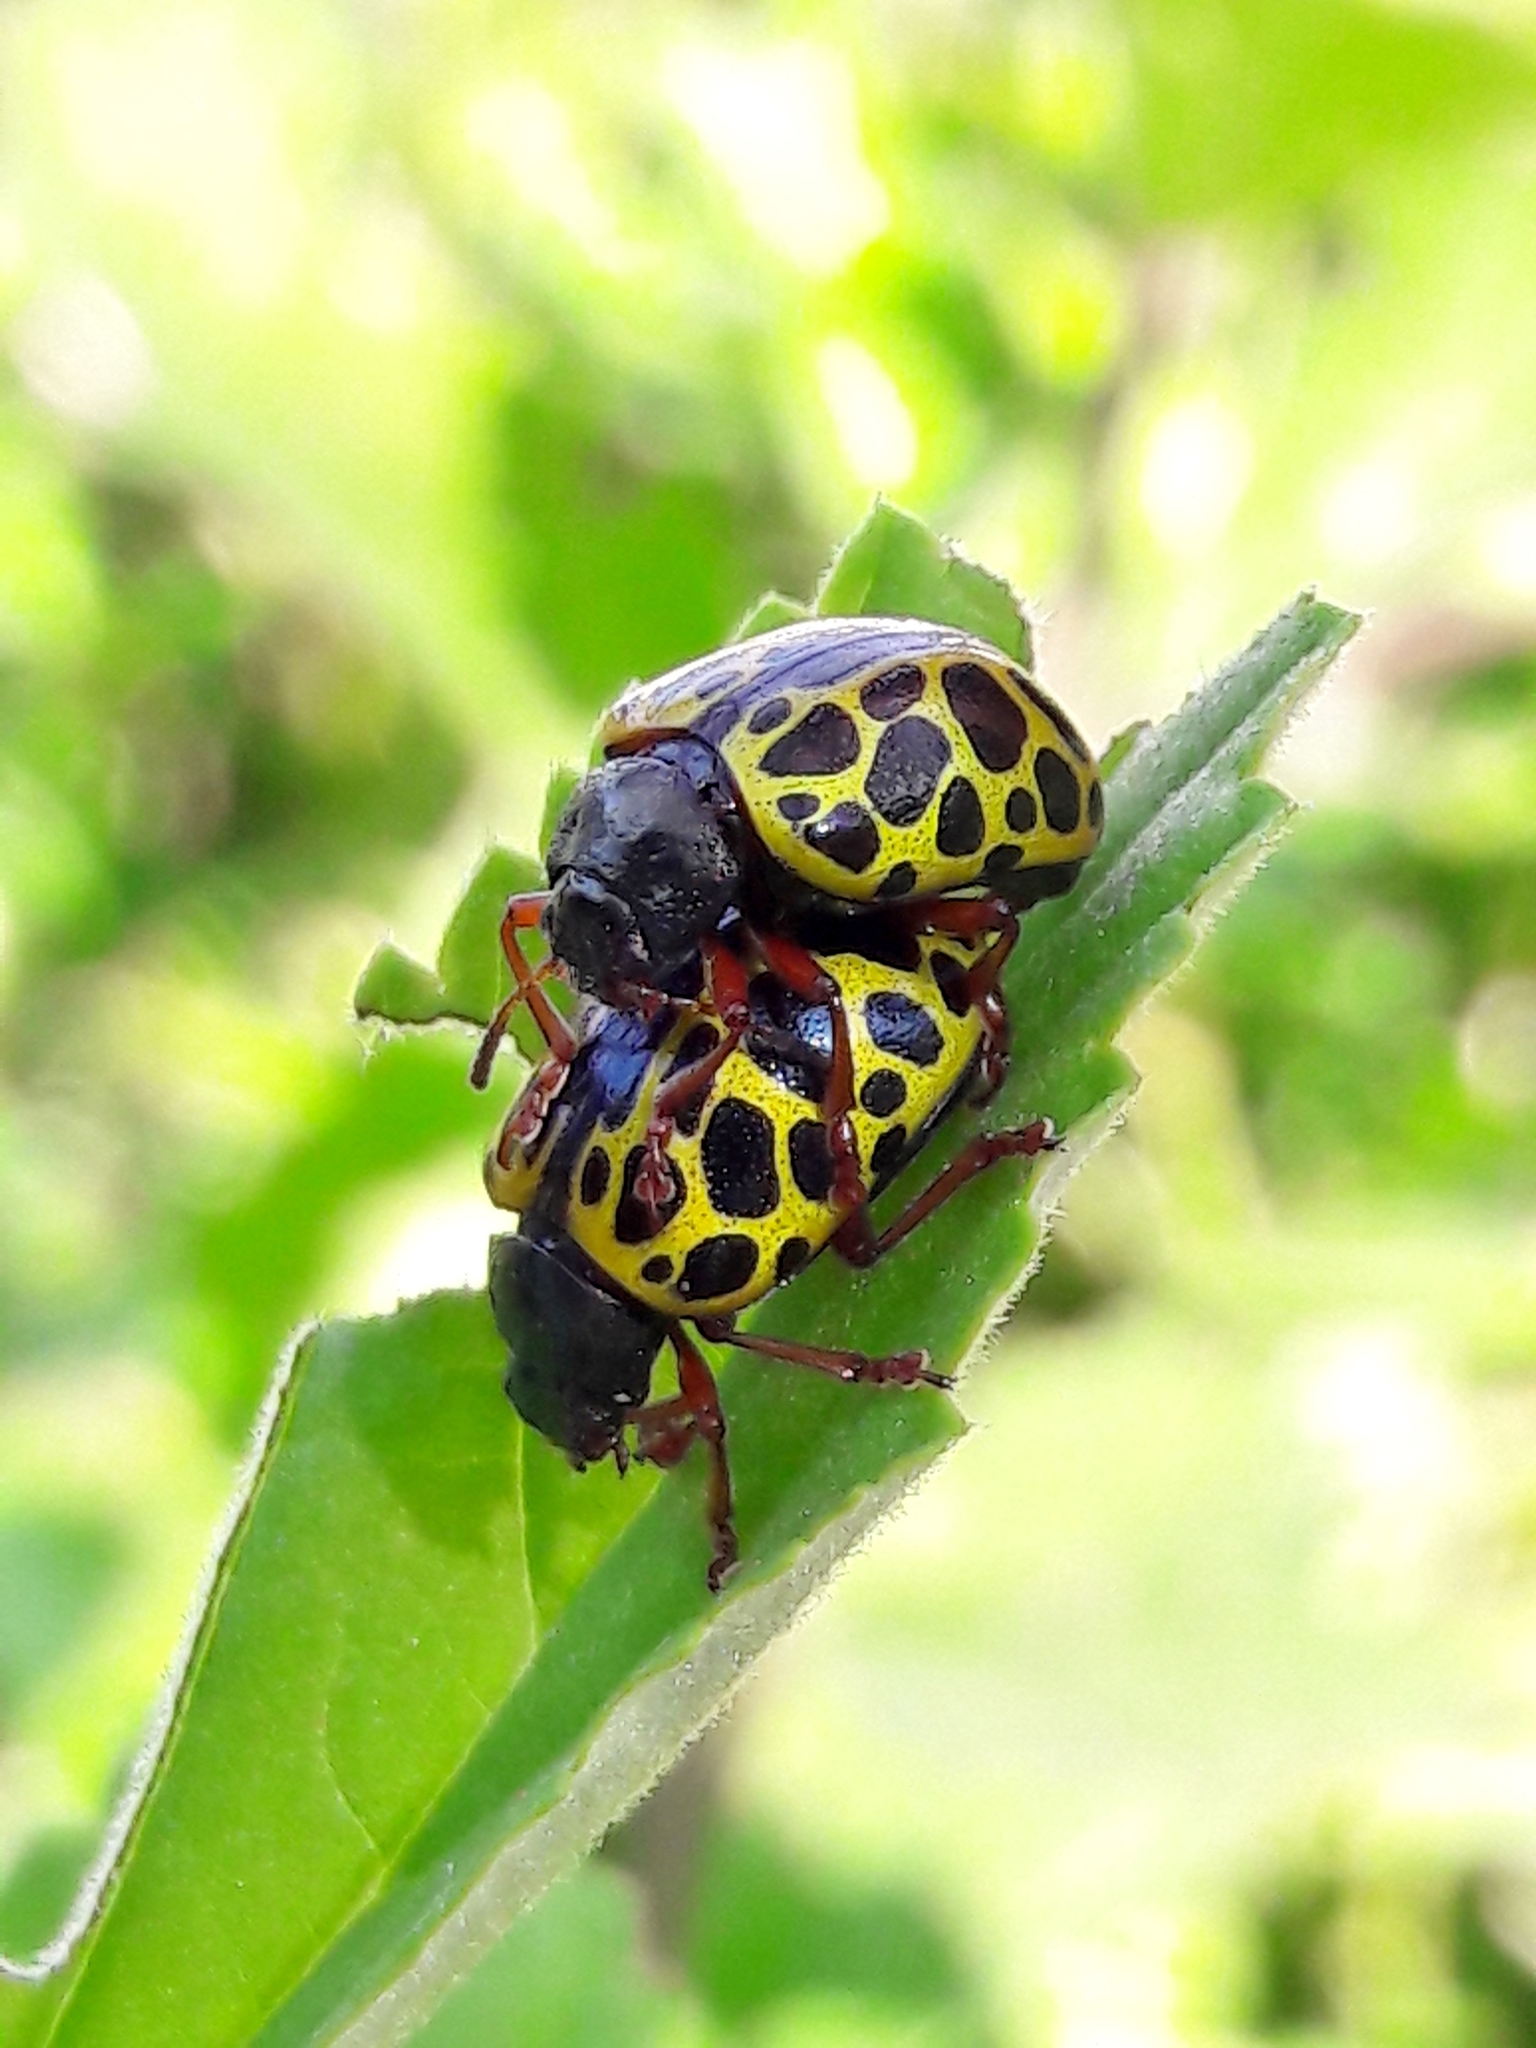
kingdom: Animalia
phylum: Arthropoda
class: Insecta
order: Coleoptera
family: Chrysomelidae
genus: Calligrapha
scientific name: Calligrapha polyspila
